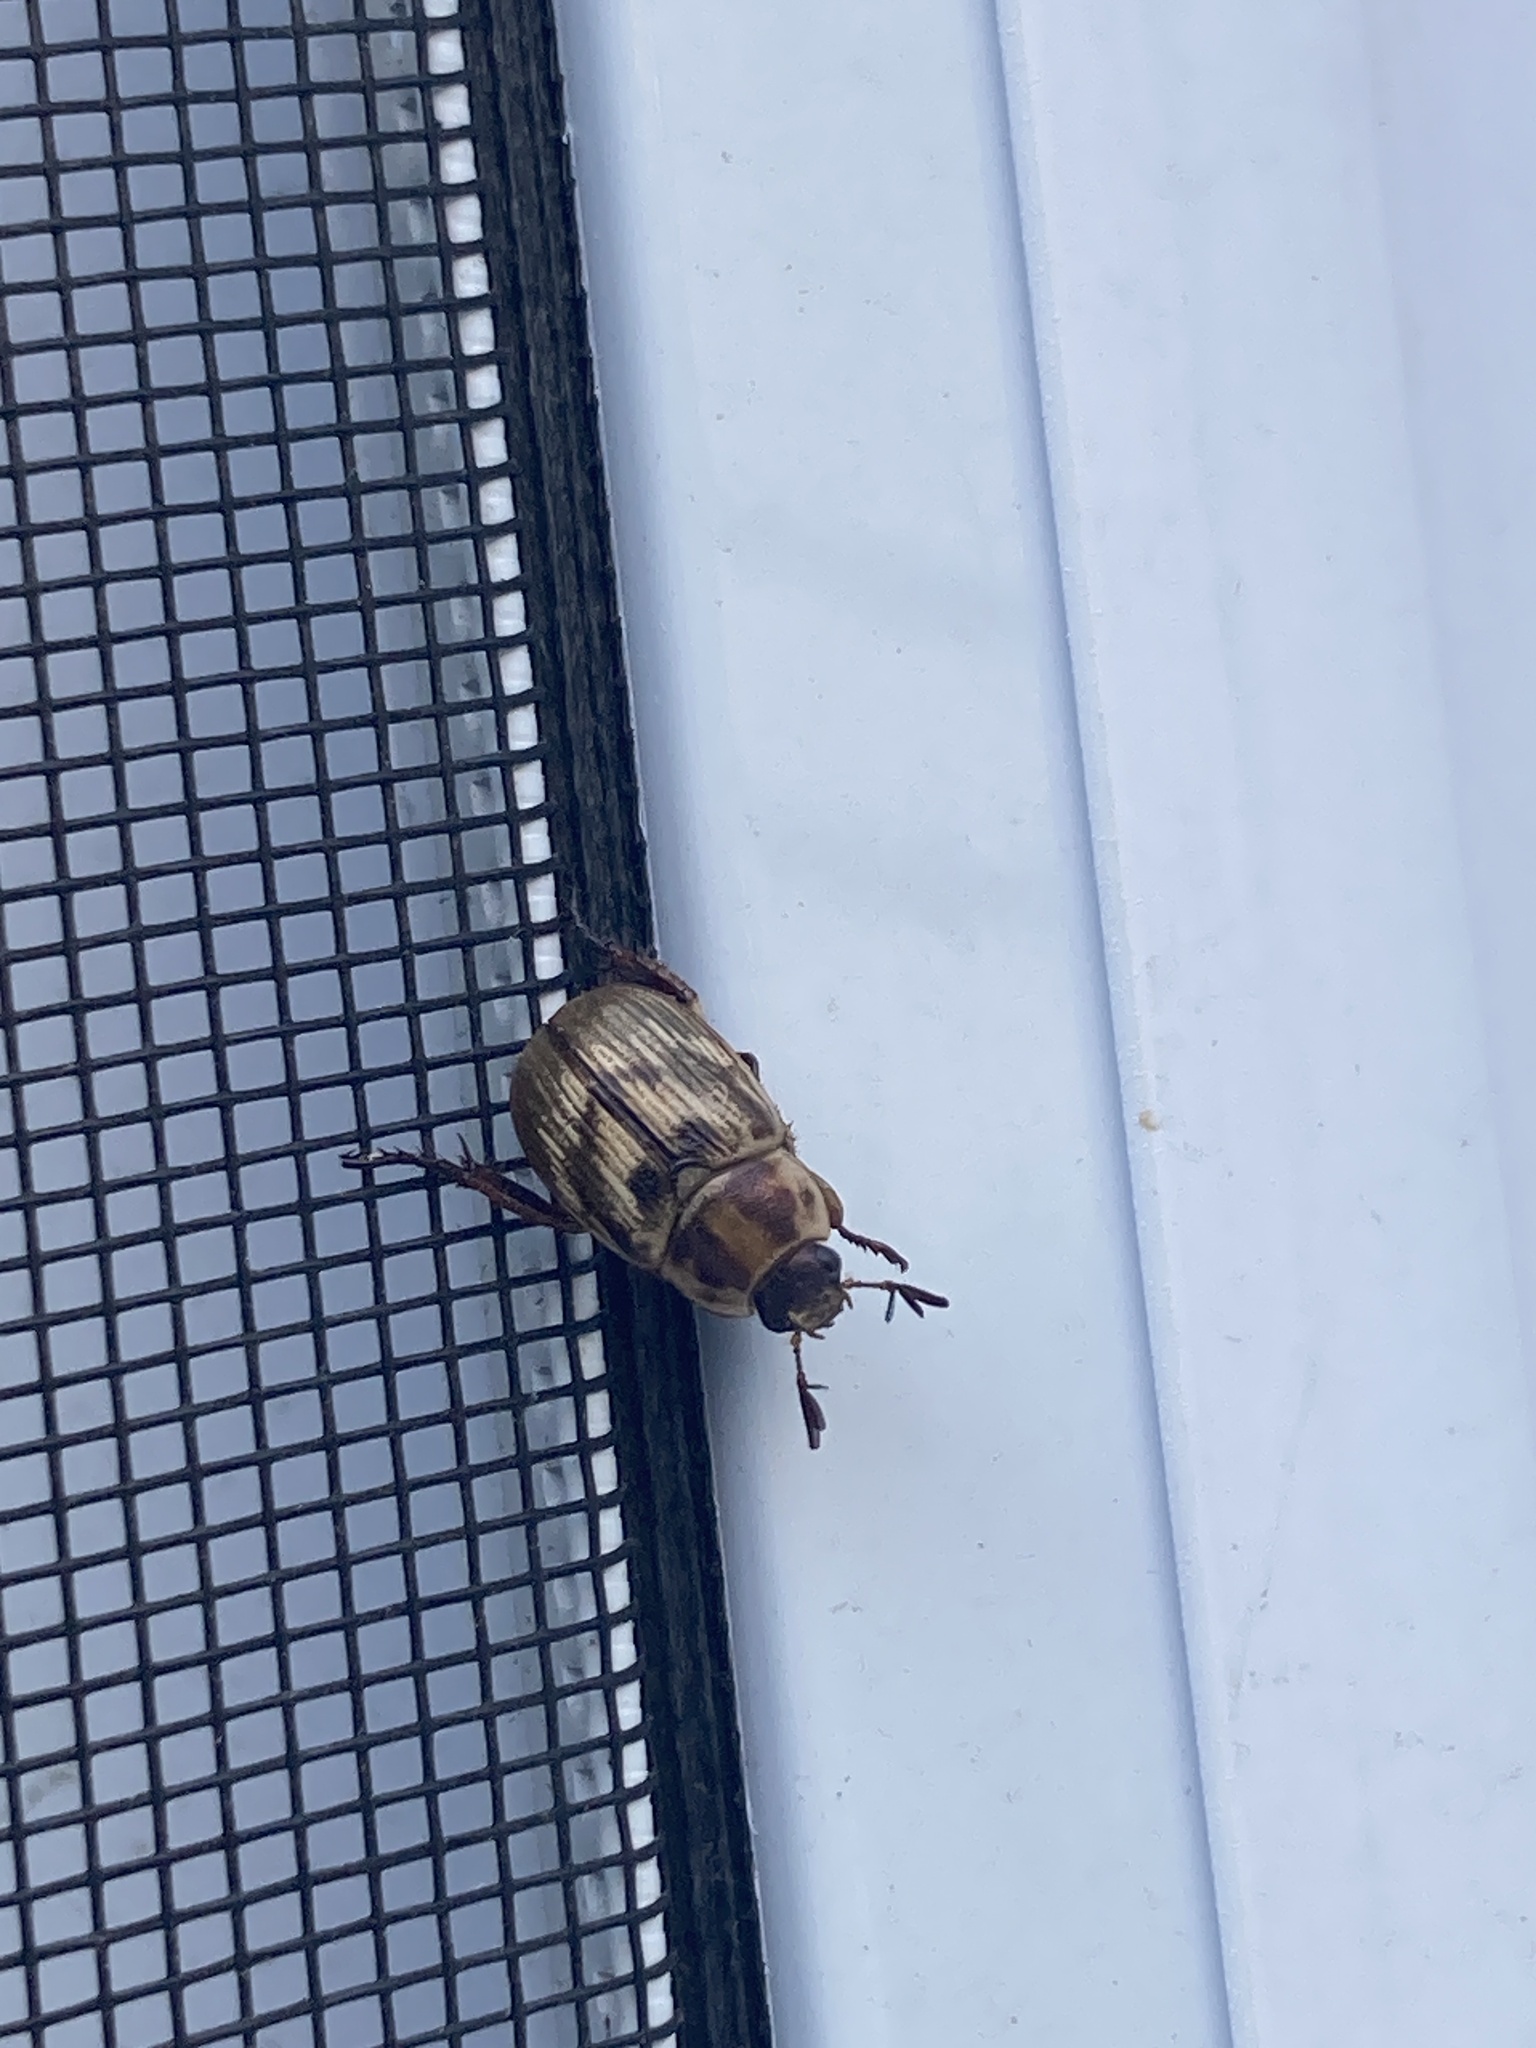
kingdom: Animalia
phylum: Arthropoda
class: Insecta
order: Coleoptera
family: Scarabaeidae
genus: Exomala
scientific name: Exomala orientalis
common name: Oriental beetle
